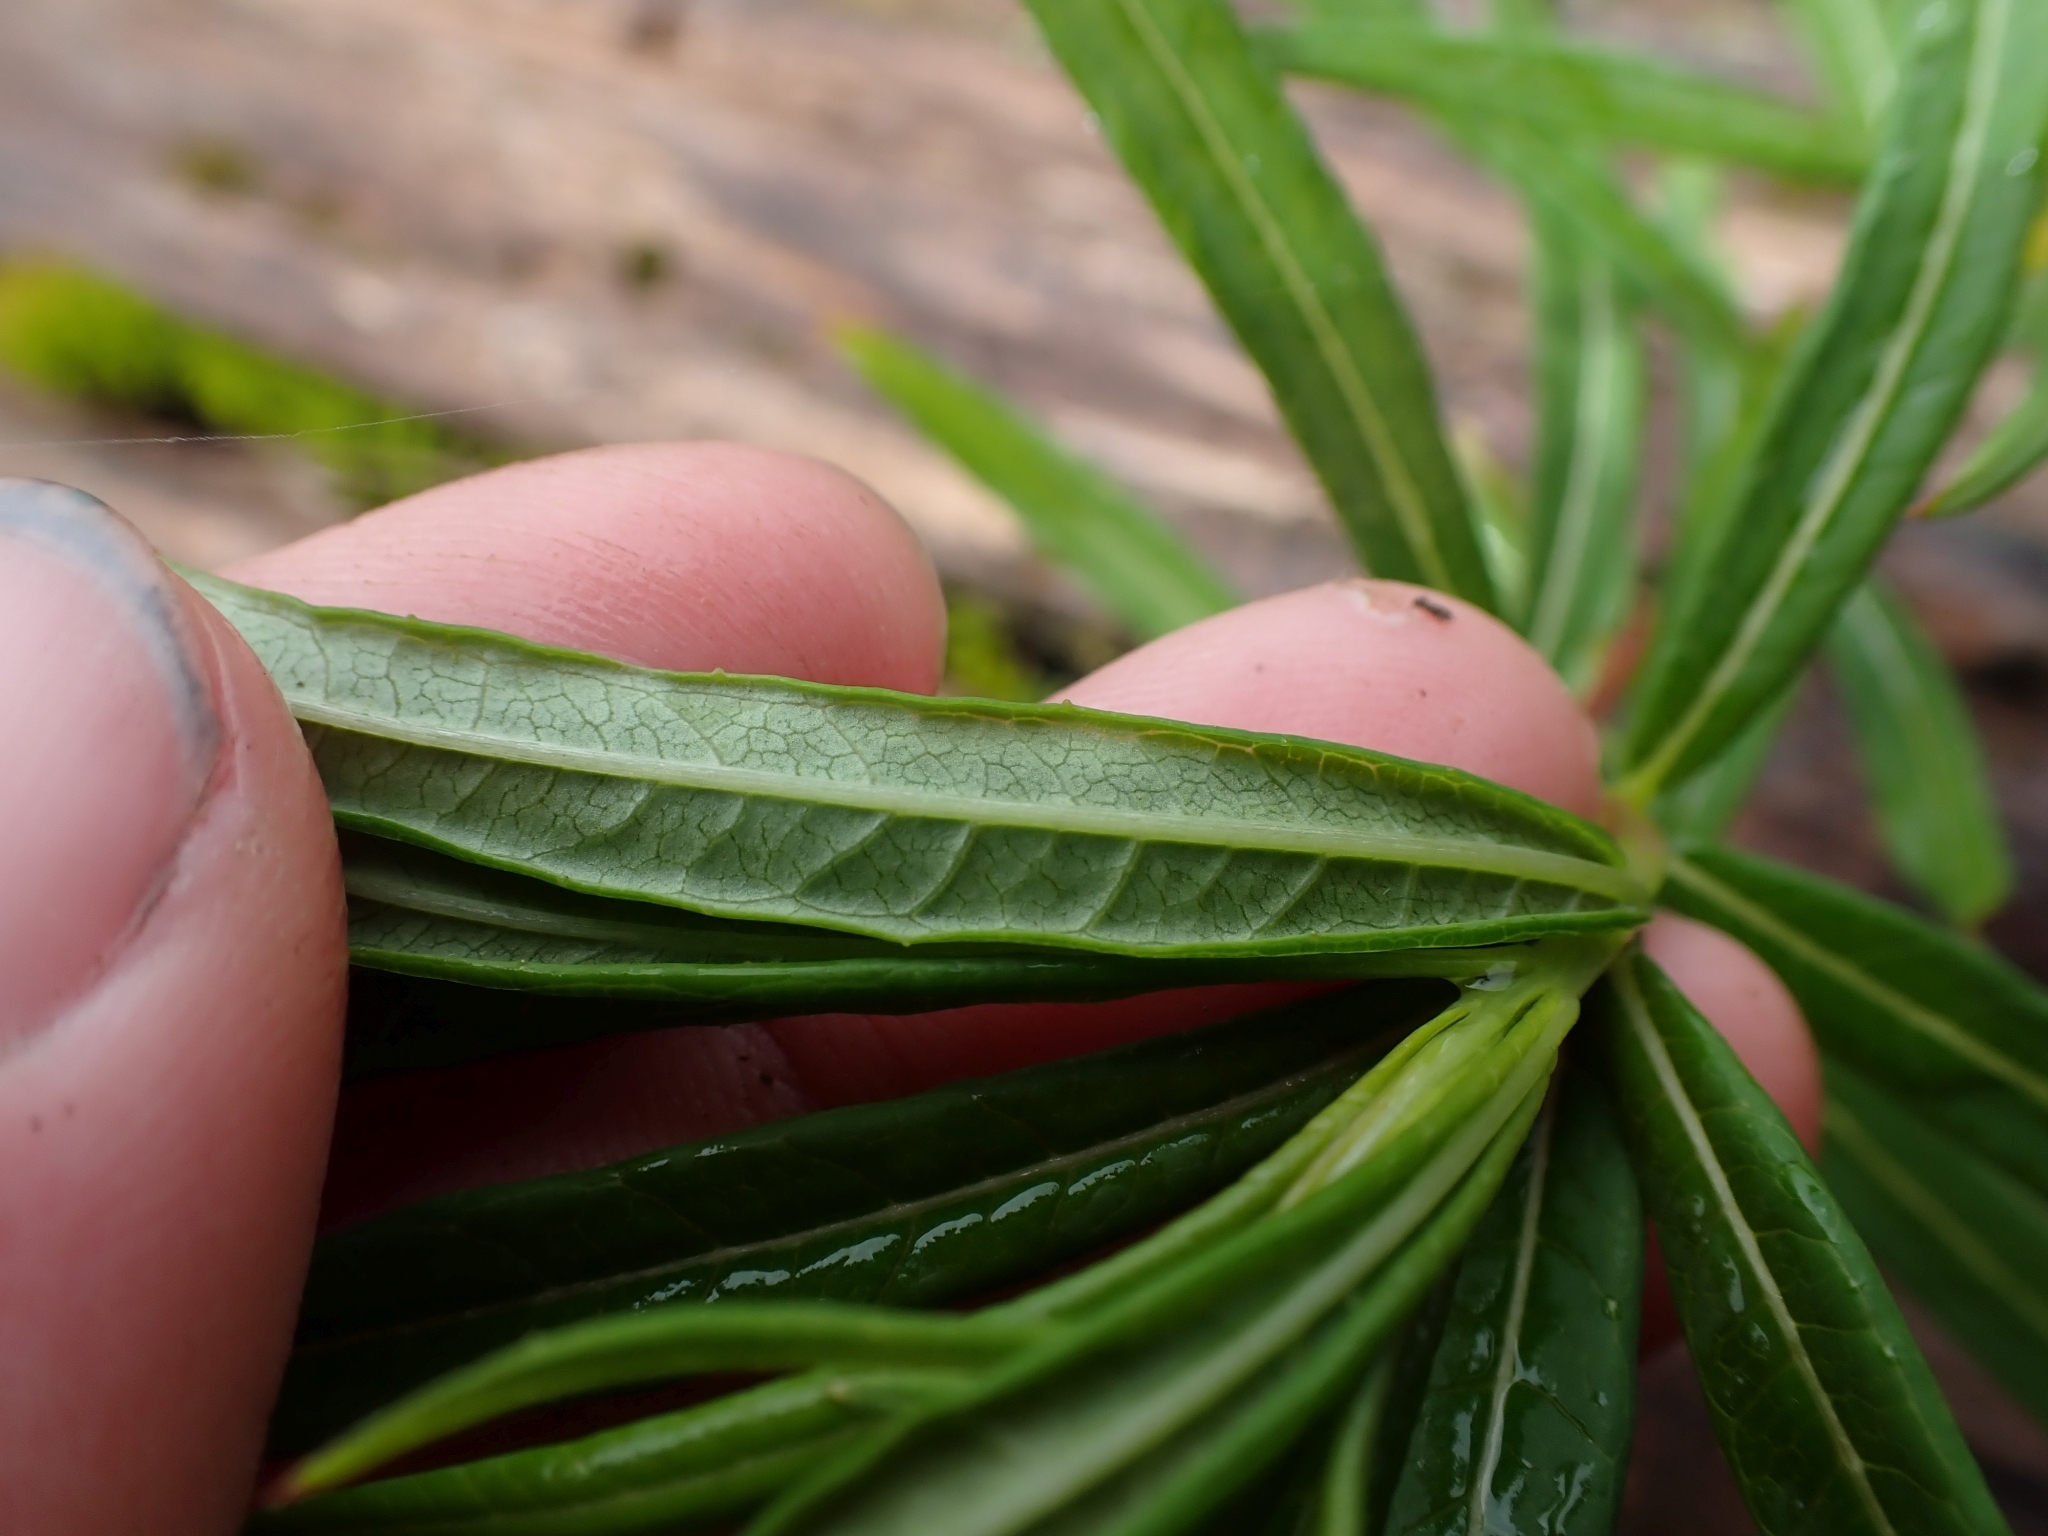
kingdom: Plantae
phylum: Tracheophyta
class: Magnoliopsida
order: Myrtales
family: Onagraceae
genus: Chamaenerion
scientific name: Chamaenerion angustifolium
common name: Fireweed
